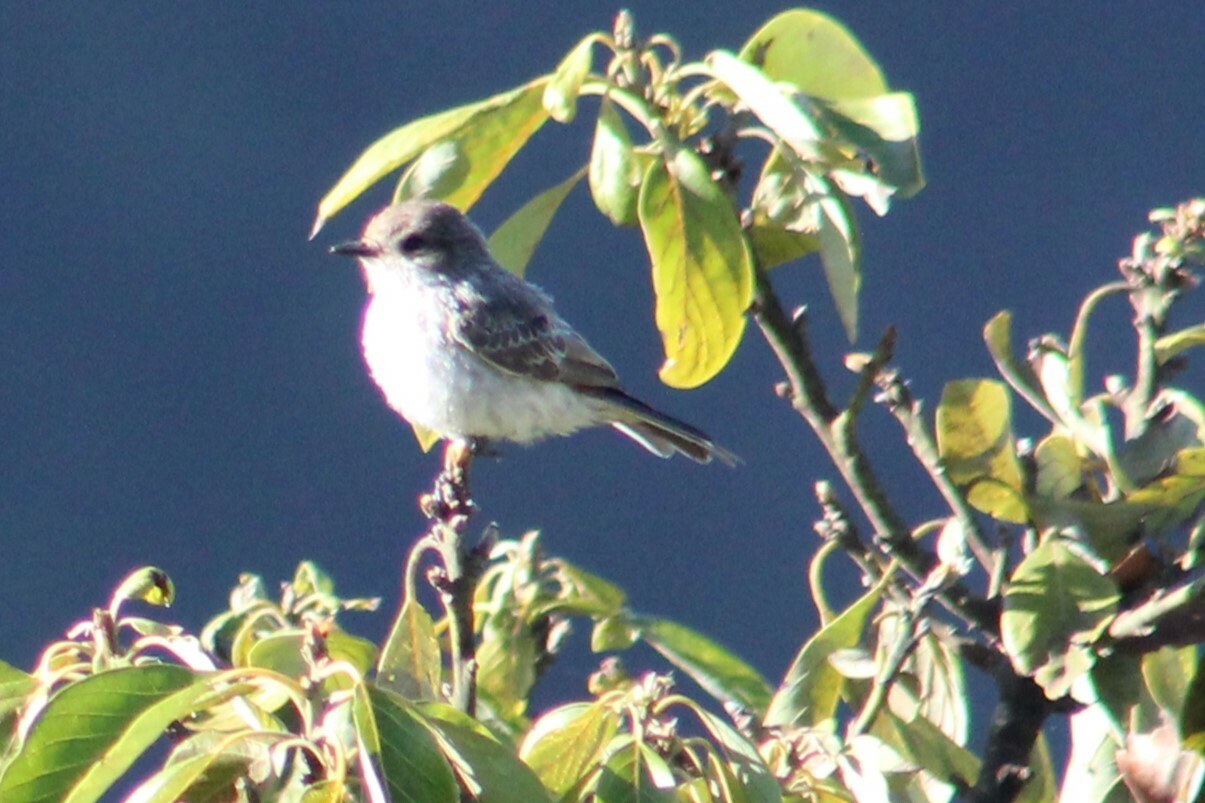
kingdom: Animalia
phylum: Chordata
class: Aves
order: Passeriformes
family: Tyrannidae
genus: Pyrocephalus
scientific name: Pyrocephalus rubinus
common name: Vermilion flycatcher
